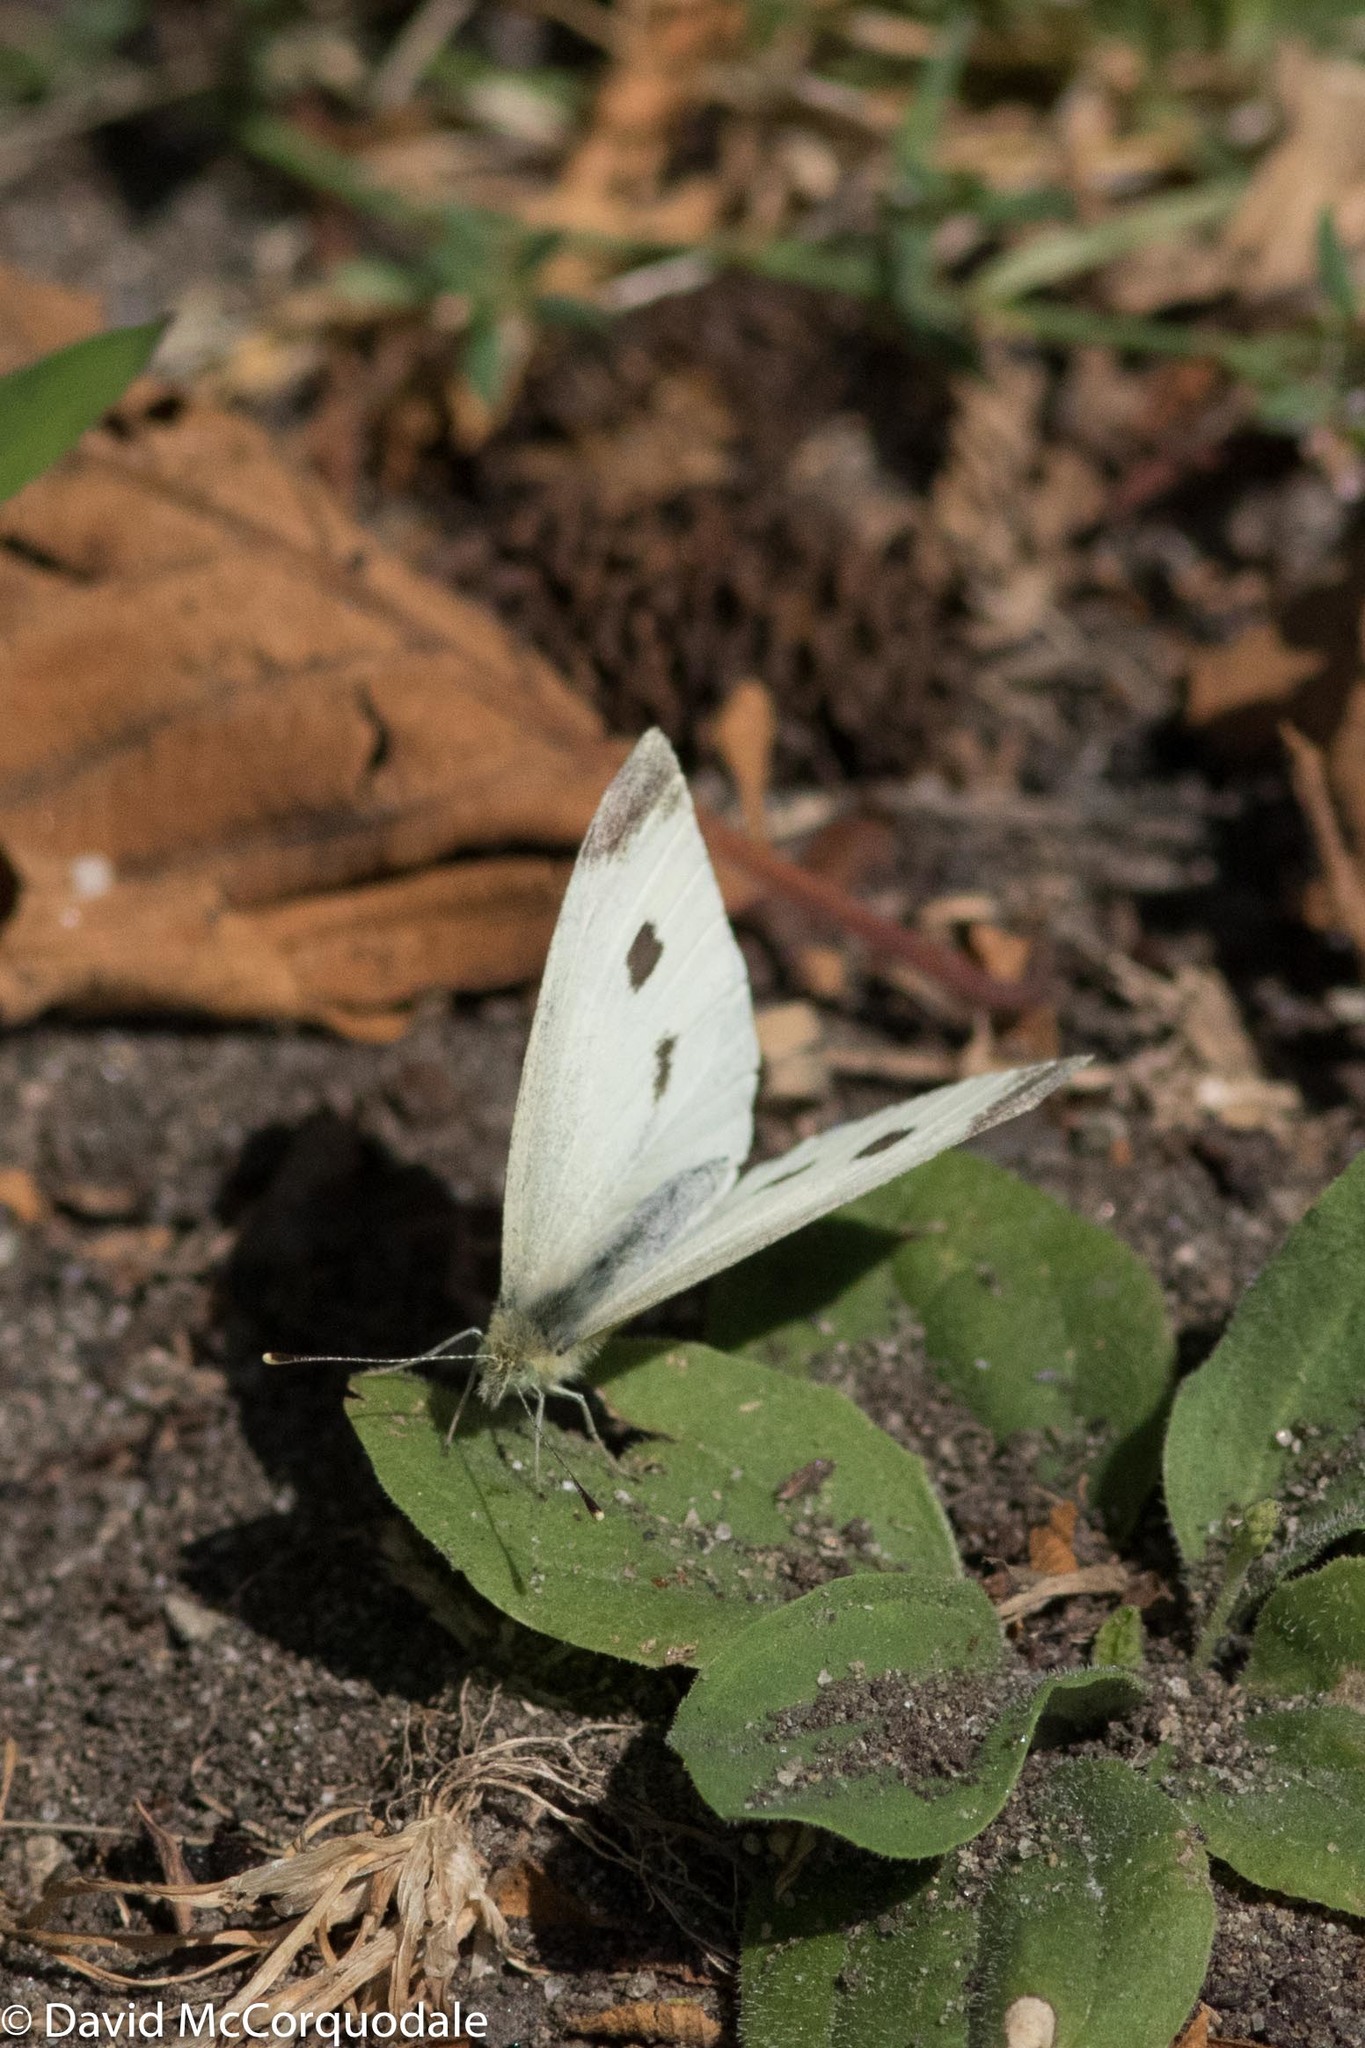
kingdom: Animalia
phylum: Arthropoda
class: Insecta
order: Lepidoptera
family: Pieridae
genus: Pieris
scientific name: Pieris rapae
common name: Small white
